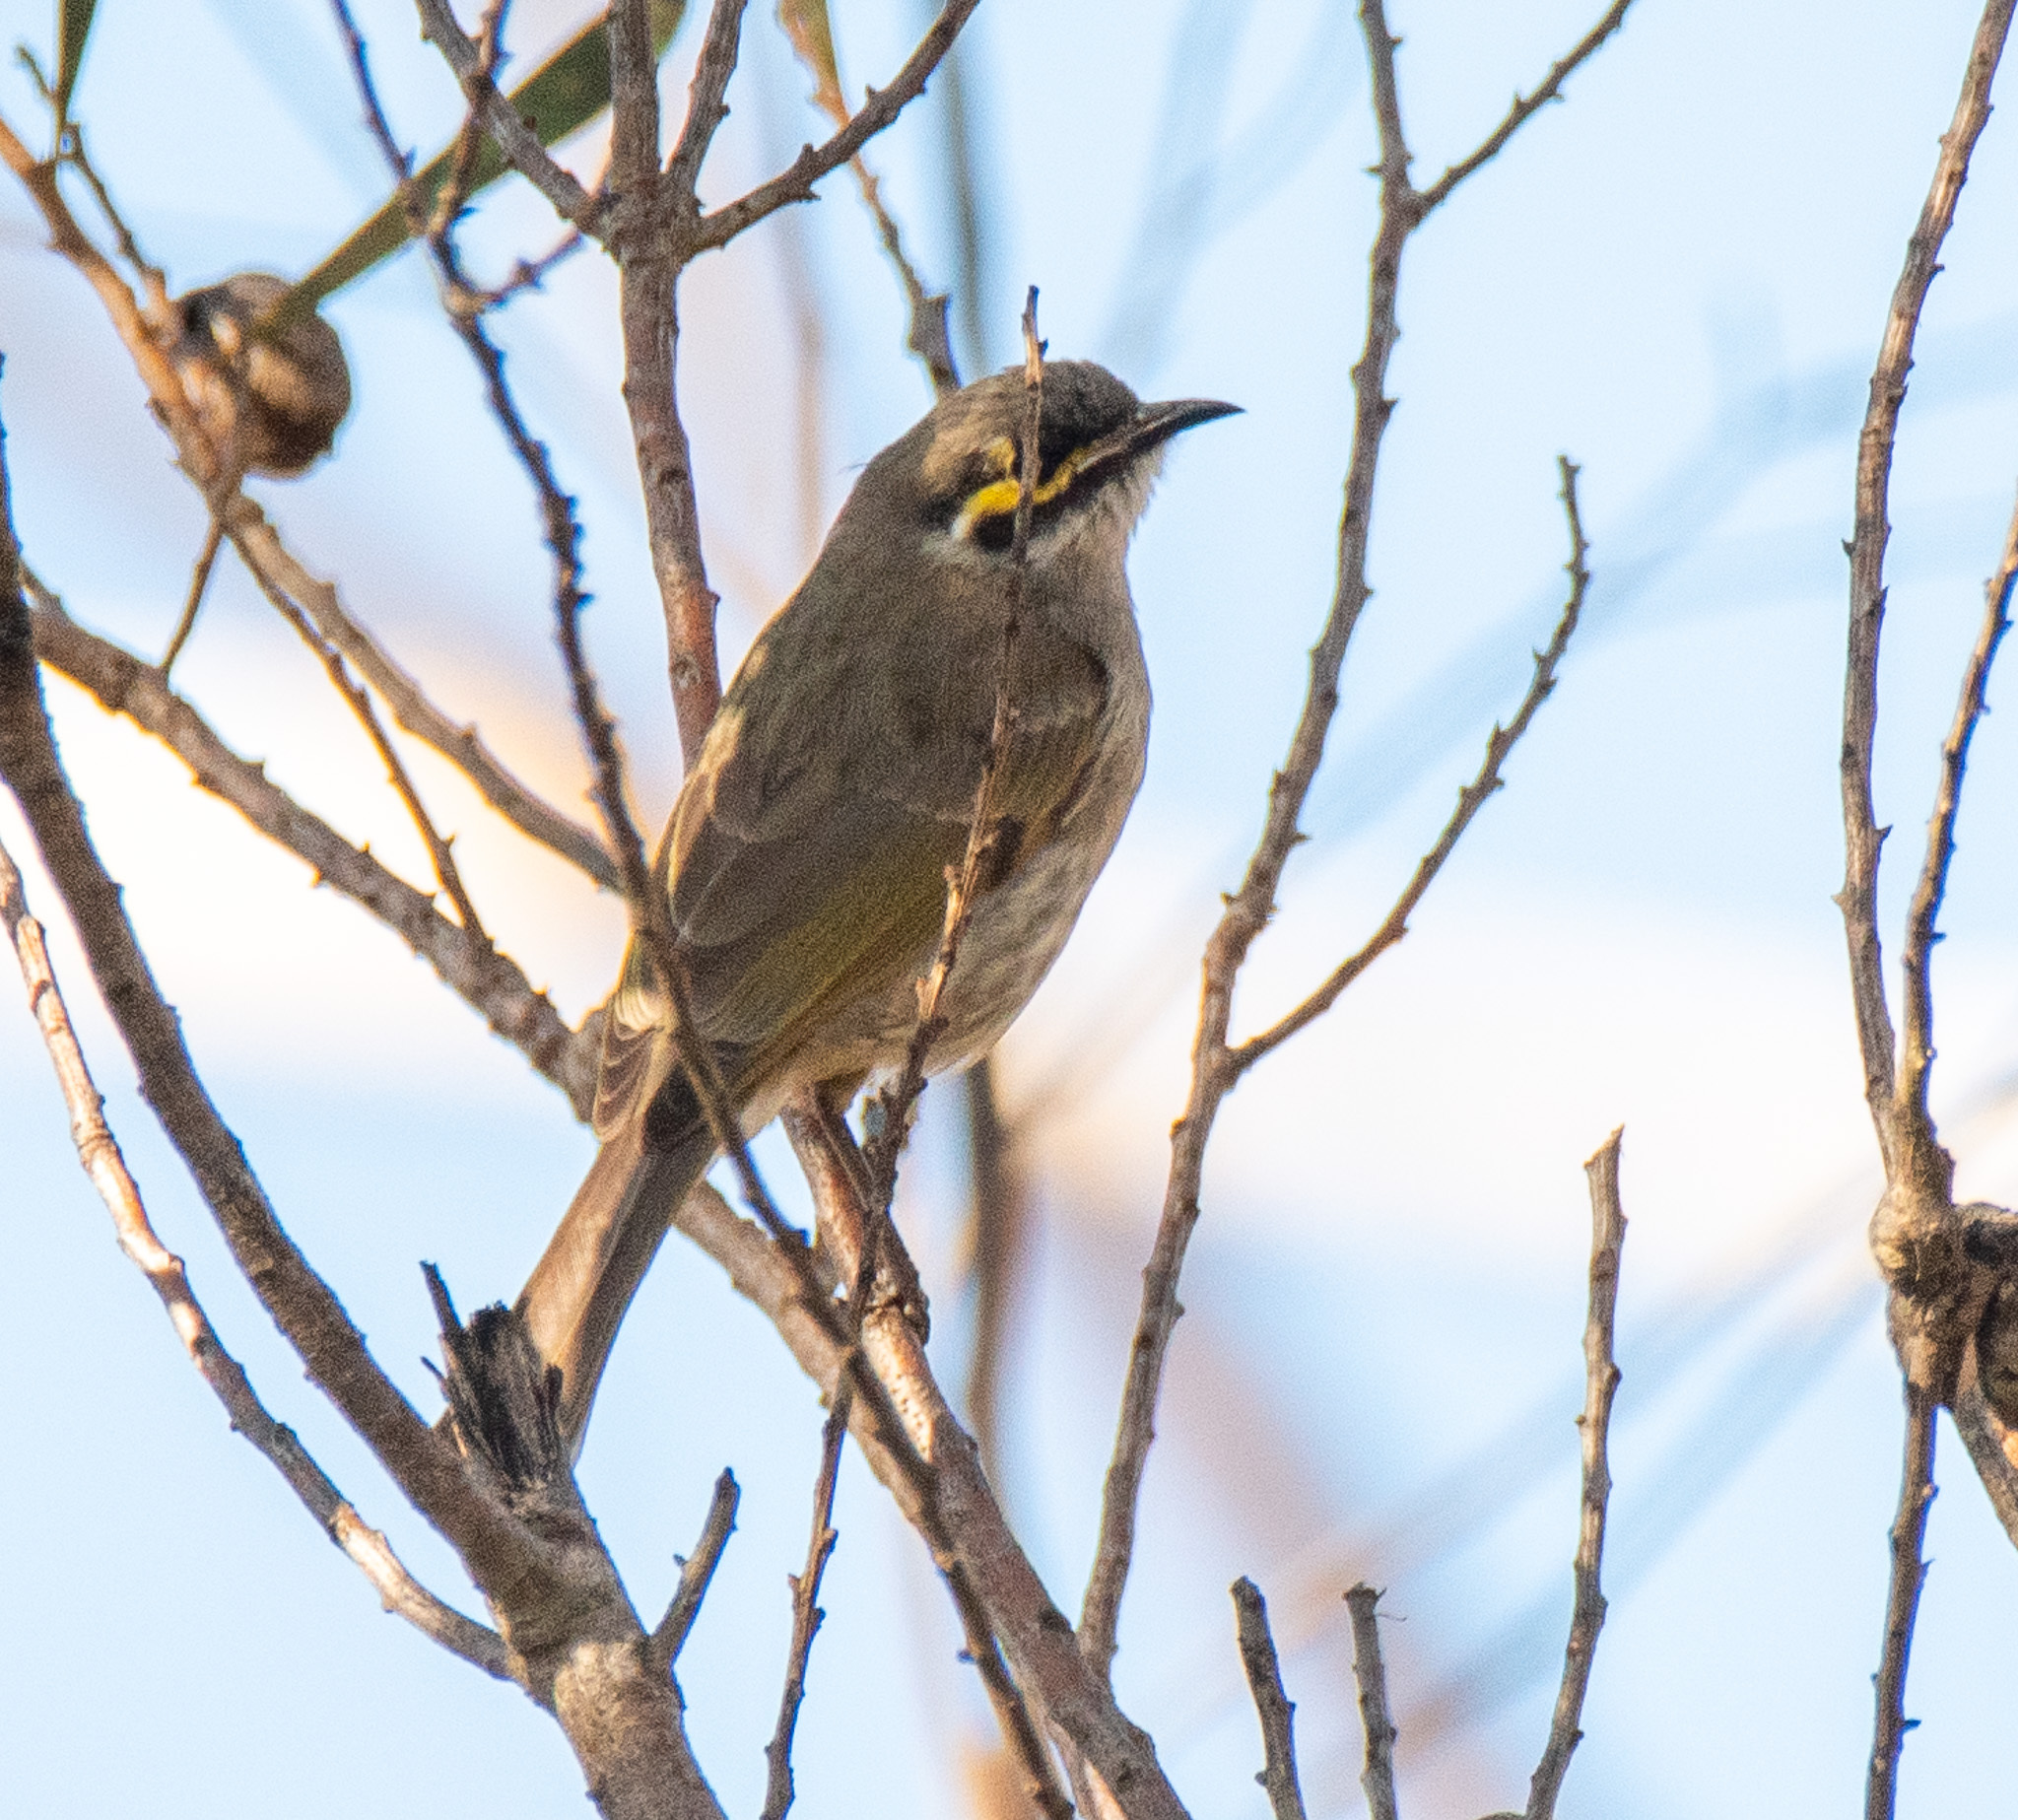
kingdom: Animalia
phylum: Chordata
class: Aves
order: Passeriformes
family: Meliphagidae
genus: Caligavis
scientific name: Caligavis chrysops
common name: Yellow-faced honeyeater
